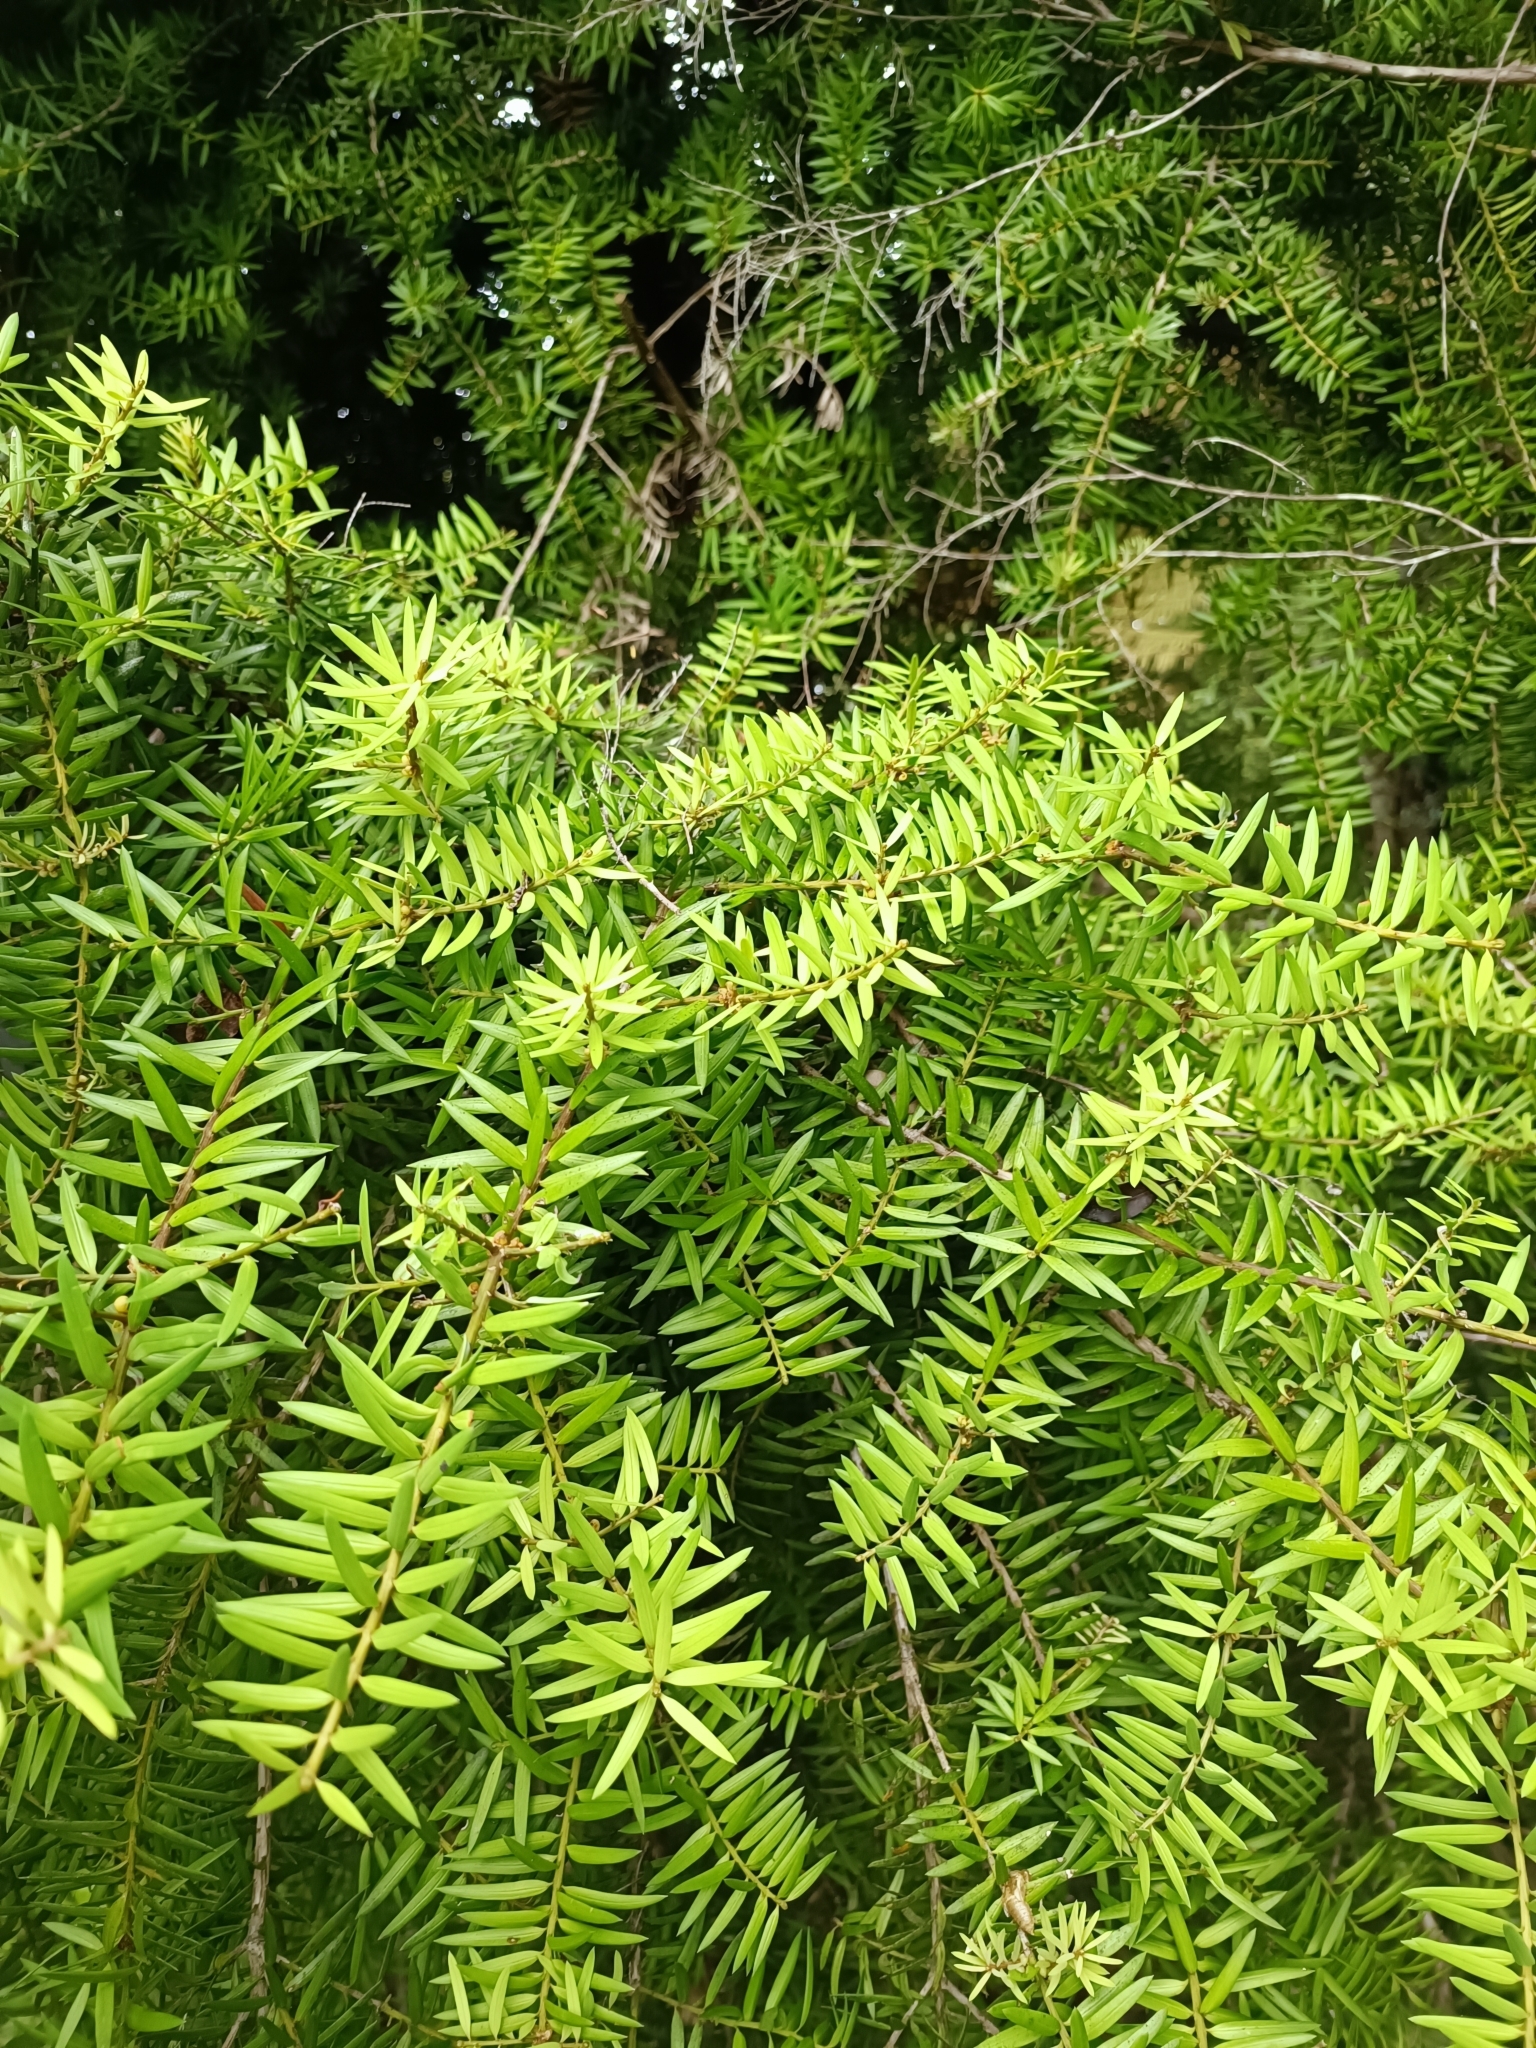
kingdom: Plantae
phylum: Tracheophyta
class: Pinopsida
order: Pinales
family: Podocarpaceae
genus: Podocarpus
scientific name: Podocarpus totara
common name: Totara
